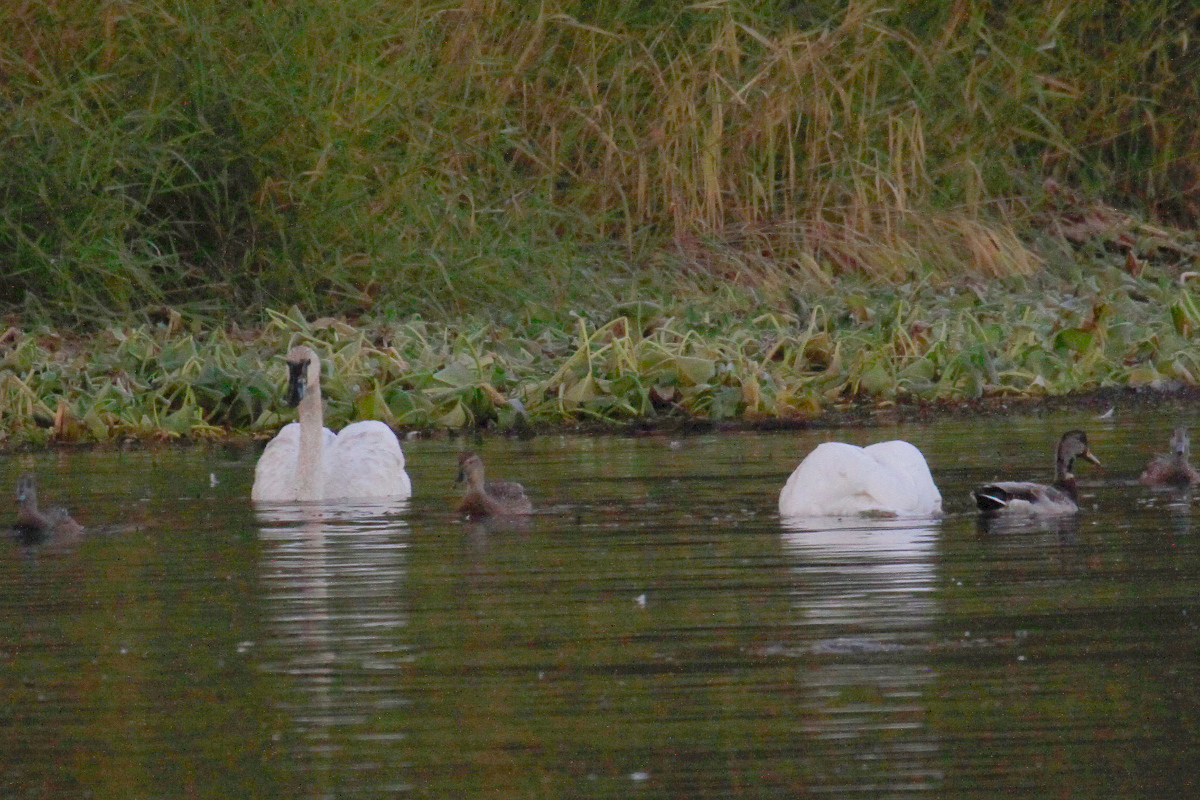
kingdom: Animalia
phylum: Chordata
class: Aves
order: Anseriformes
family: Anatidae
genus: Cygnus
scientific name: Cygnus buccinator
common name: Trumpeter swan
